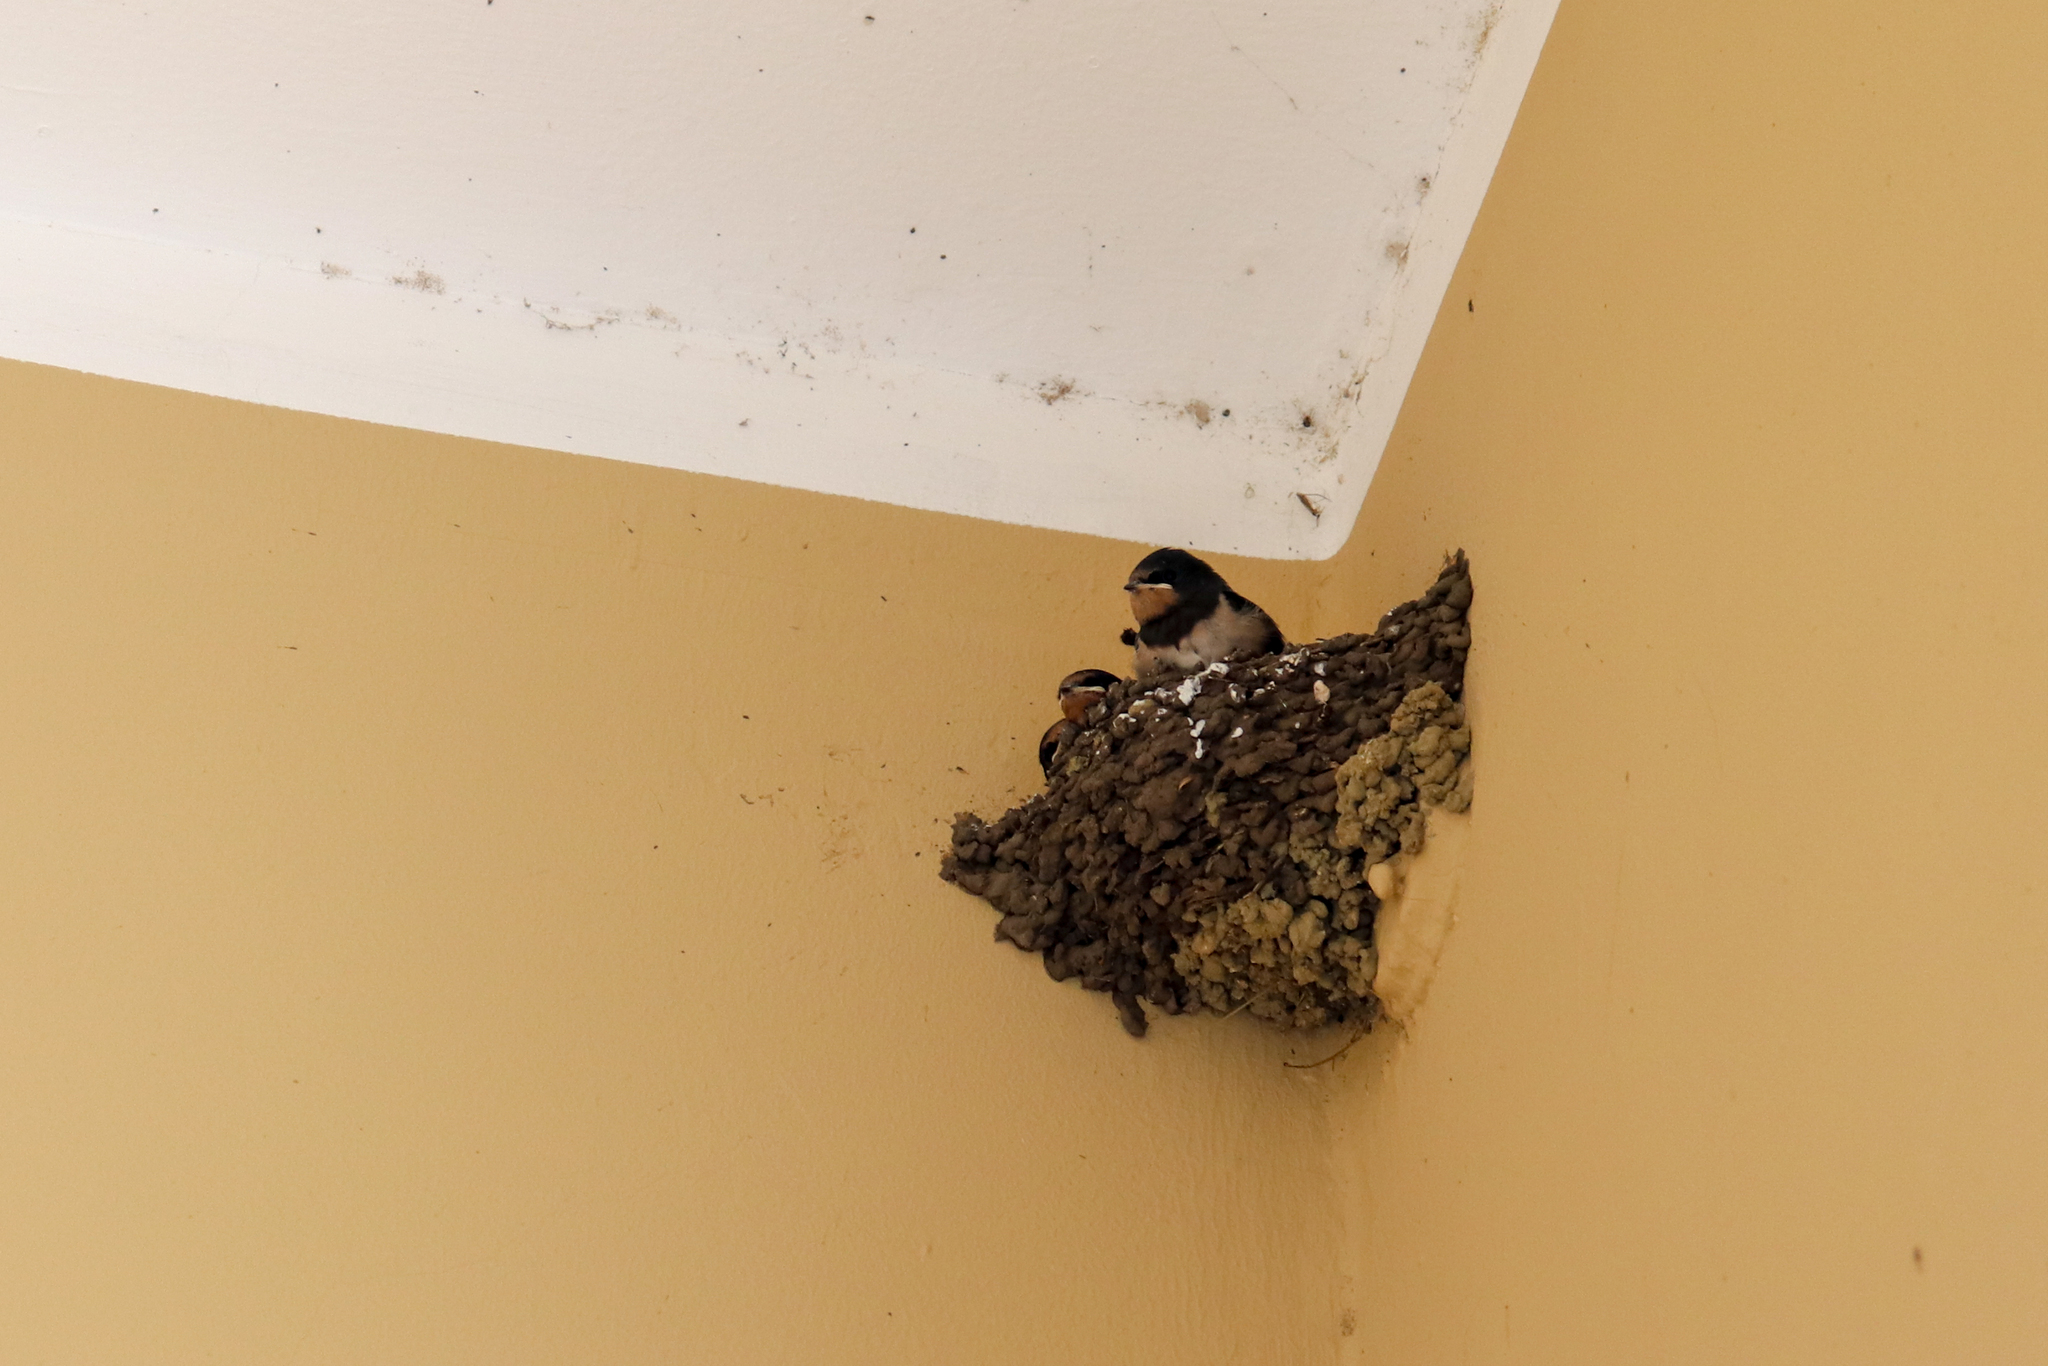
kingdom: Animalia
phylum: Chordata
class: Aves
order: Passeriformes
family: Hirundinidae
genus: Hirundo
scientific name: Hirundo rustica
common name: Barn swallow
